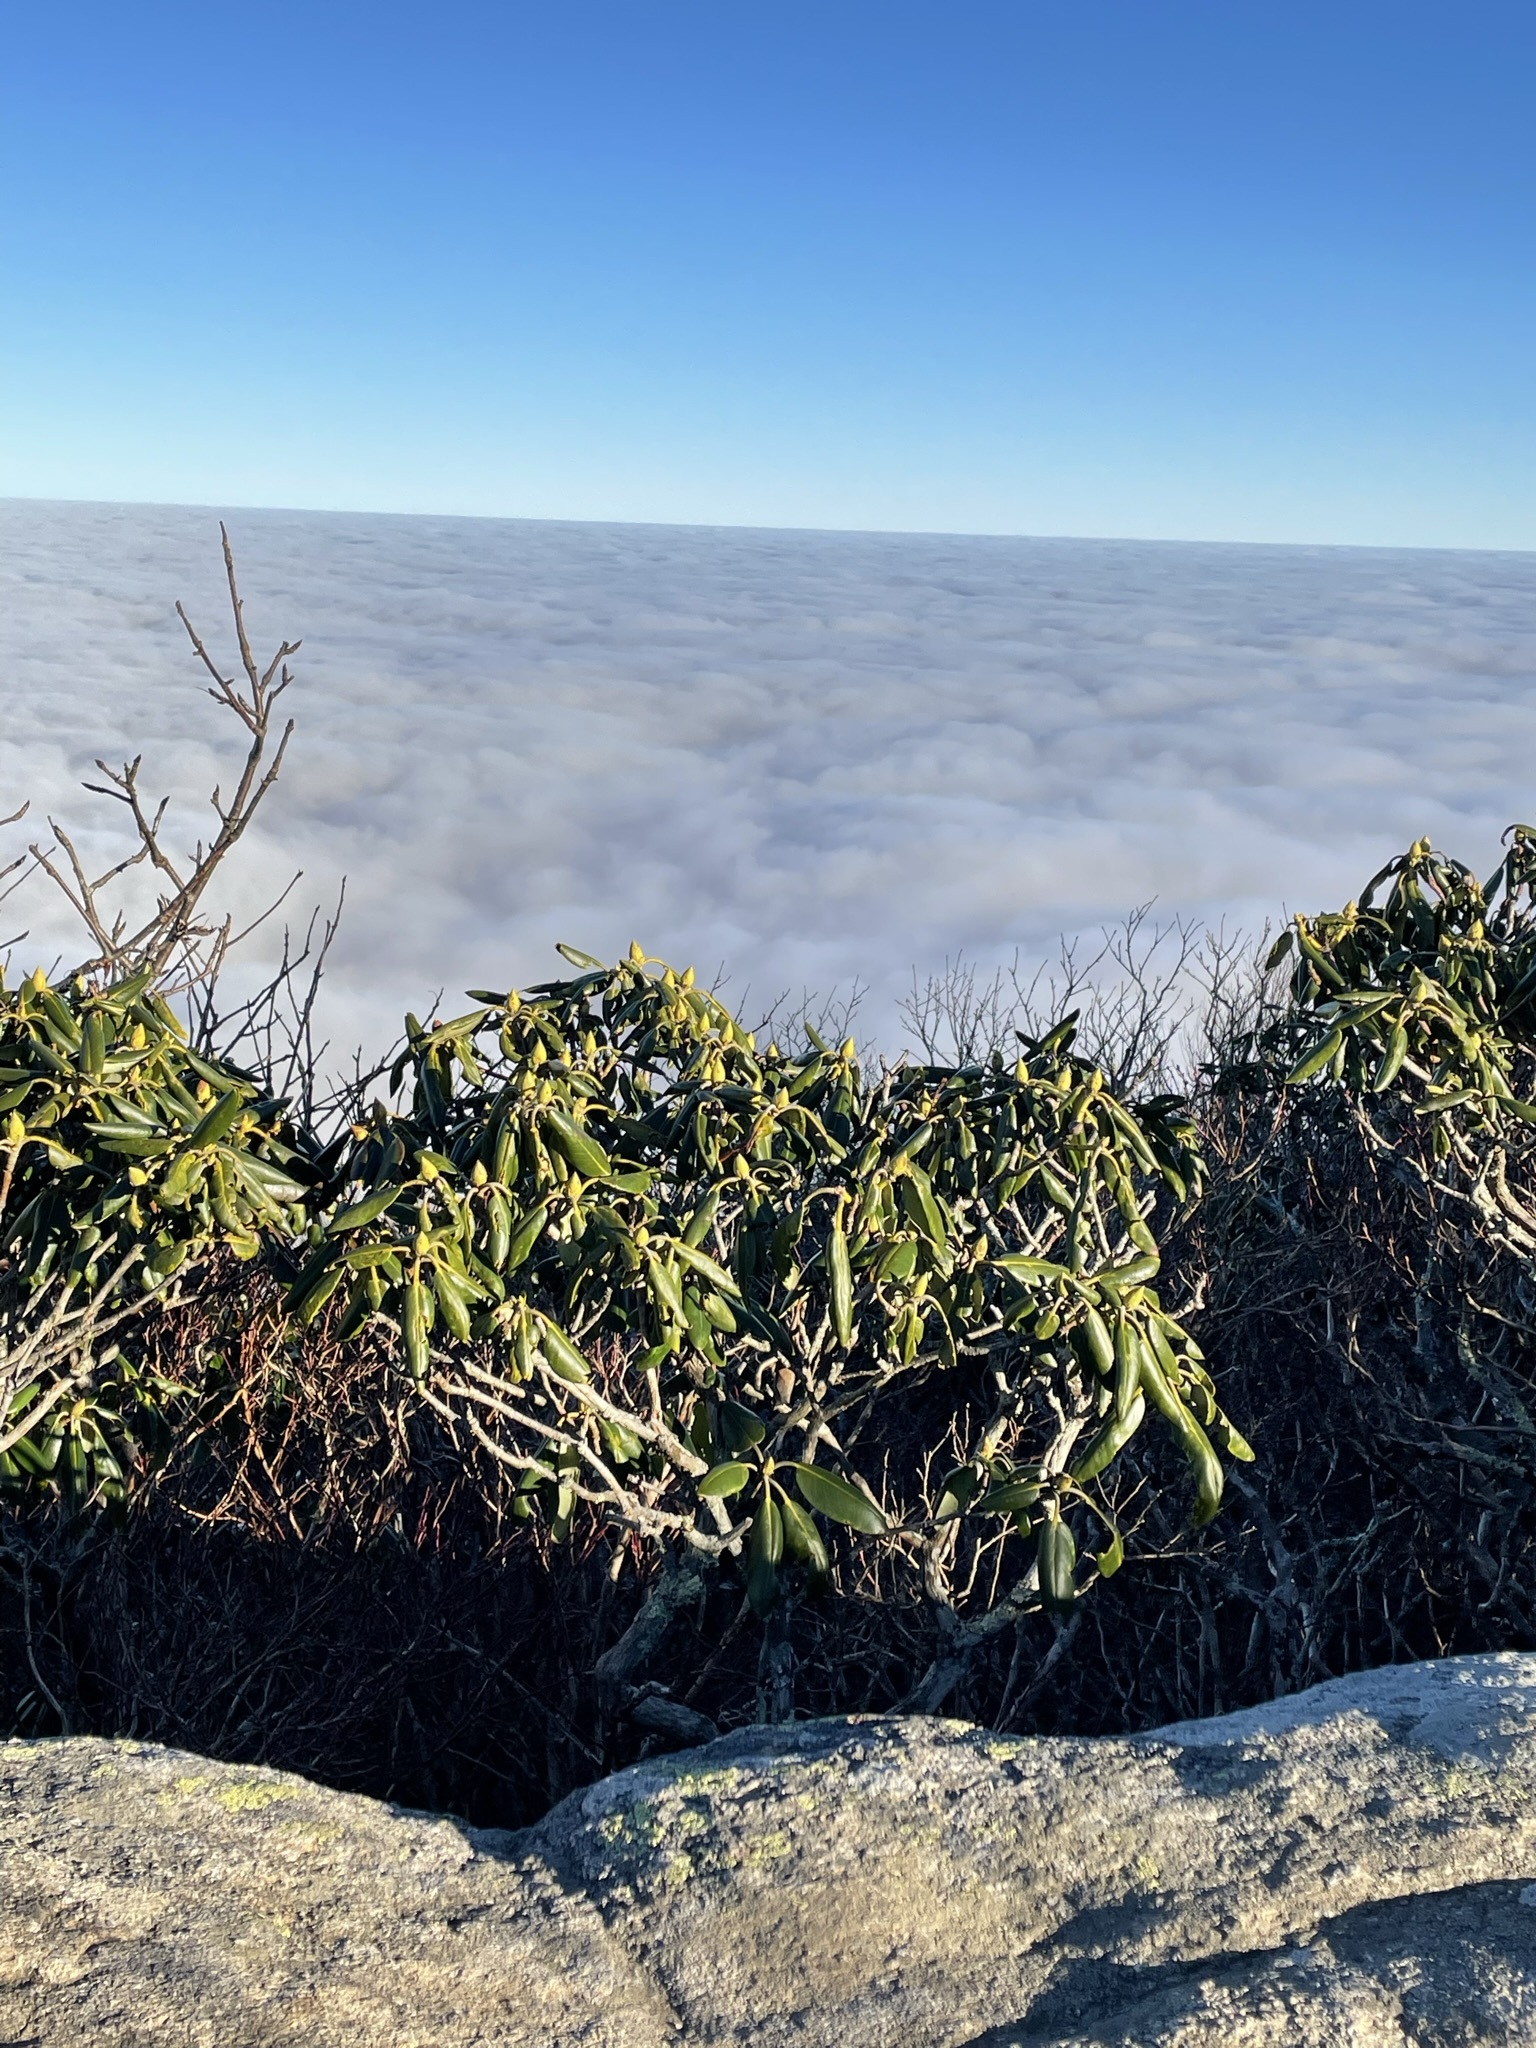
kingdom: Plantae
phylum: Tracheophyta
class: Magnoliopsida
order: Ericales
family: Ericaceae
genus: Rhododendron
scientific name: Rhododendron catawbiense
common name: Catawba rhododendron
